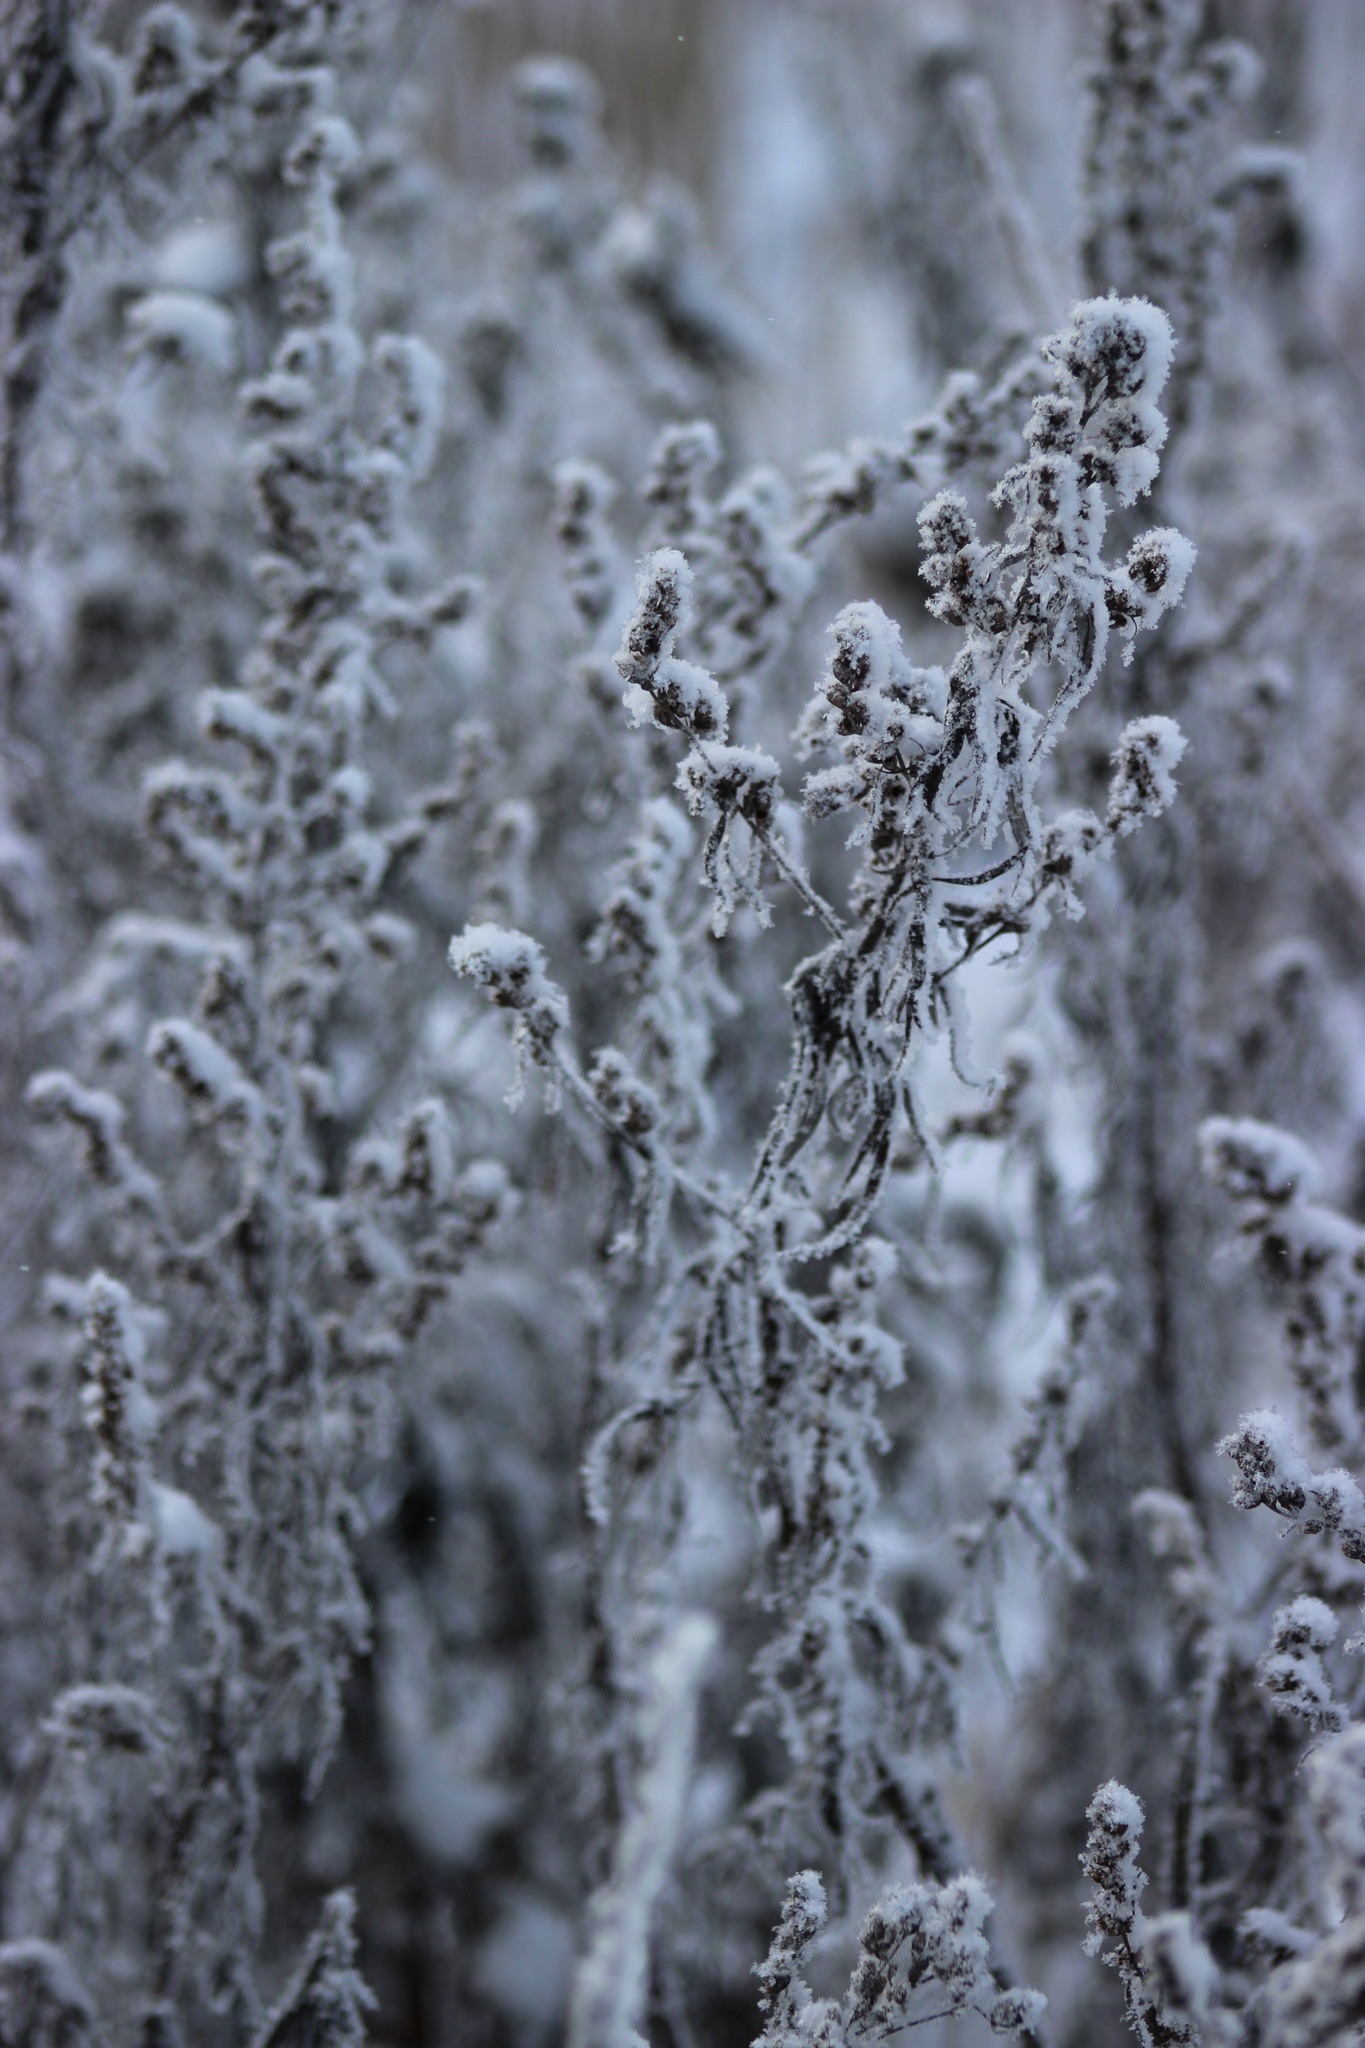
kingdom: Plantae
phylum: Tracheophyta
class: Magnoliopsida
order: Asterales
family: Asteraceae
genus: Artemisia
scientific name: Artemisia vulgaris
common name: Mugwort
